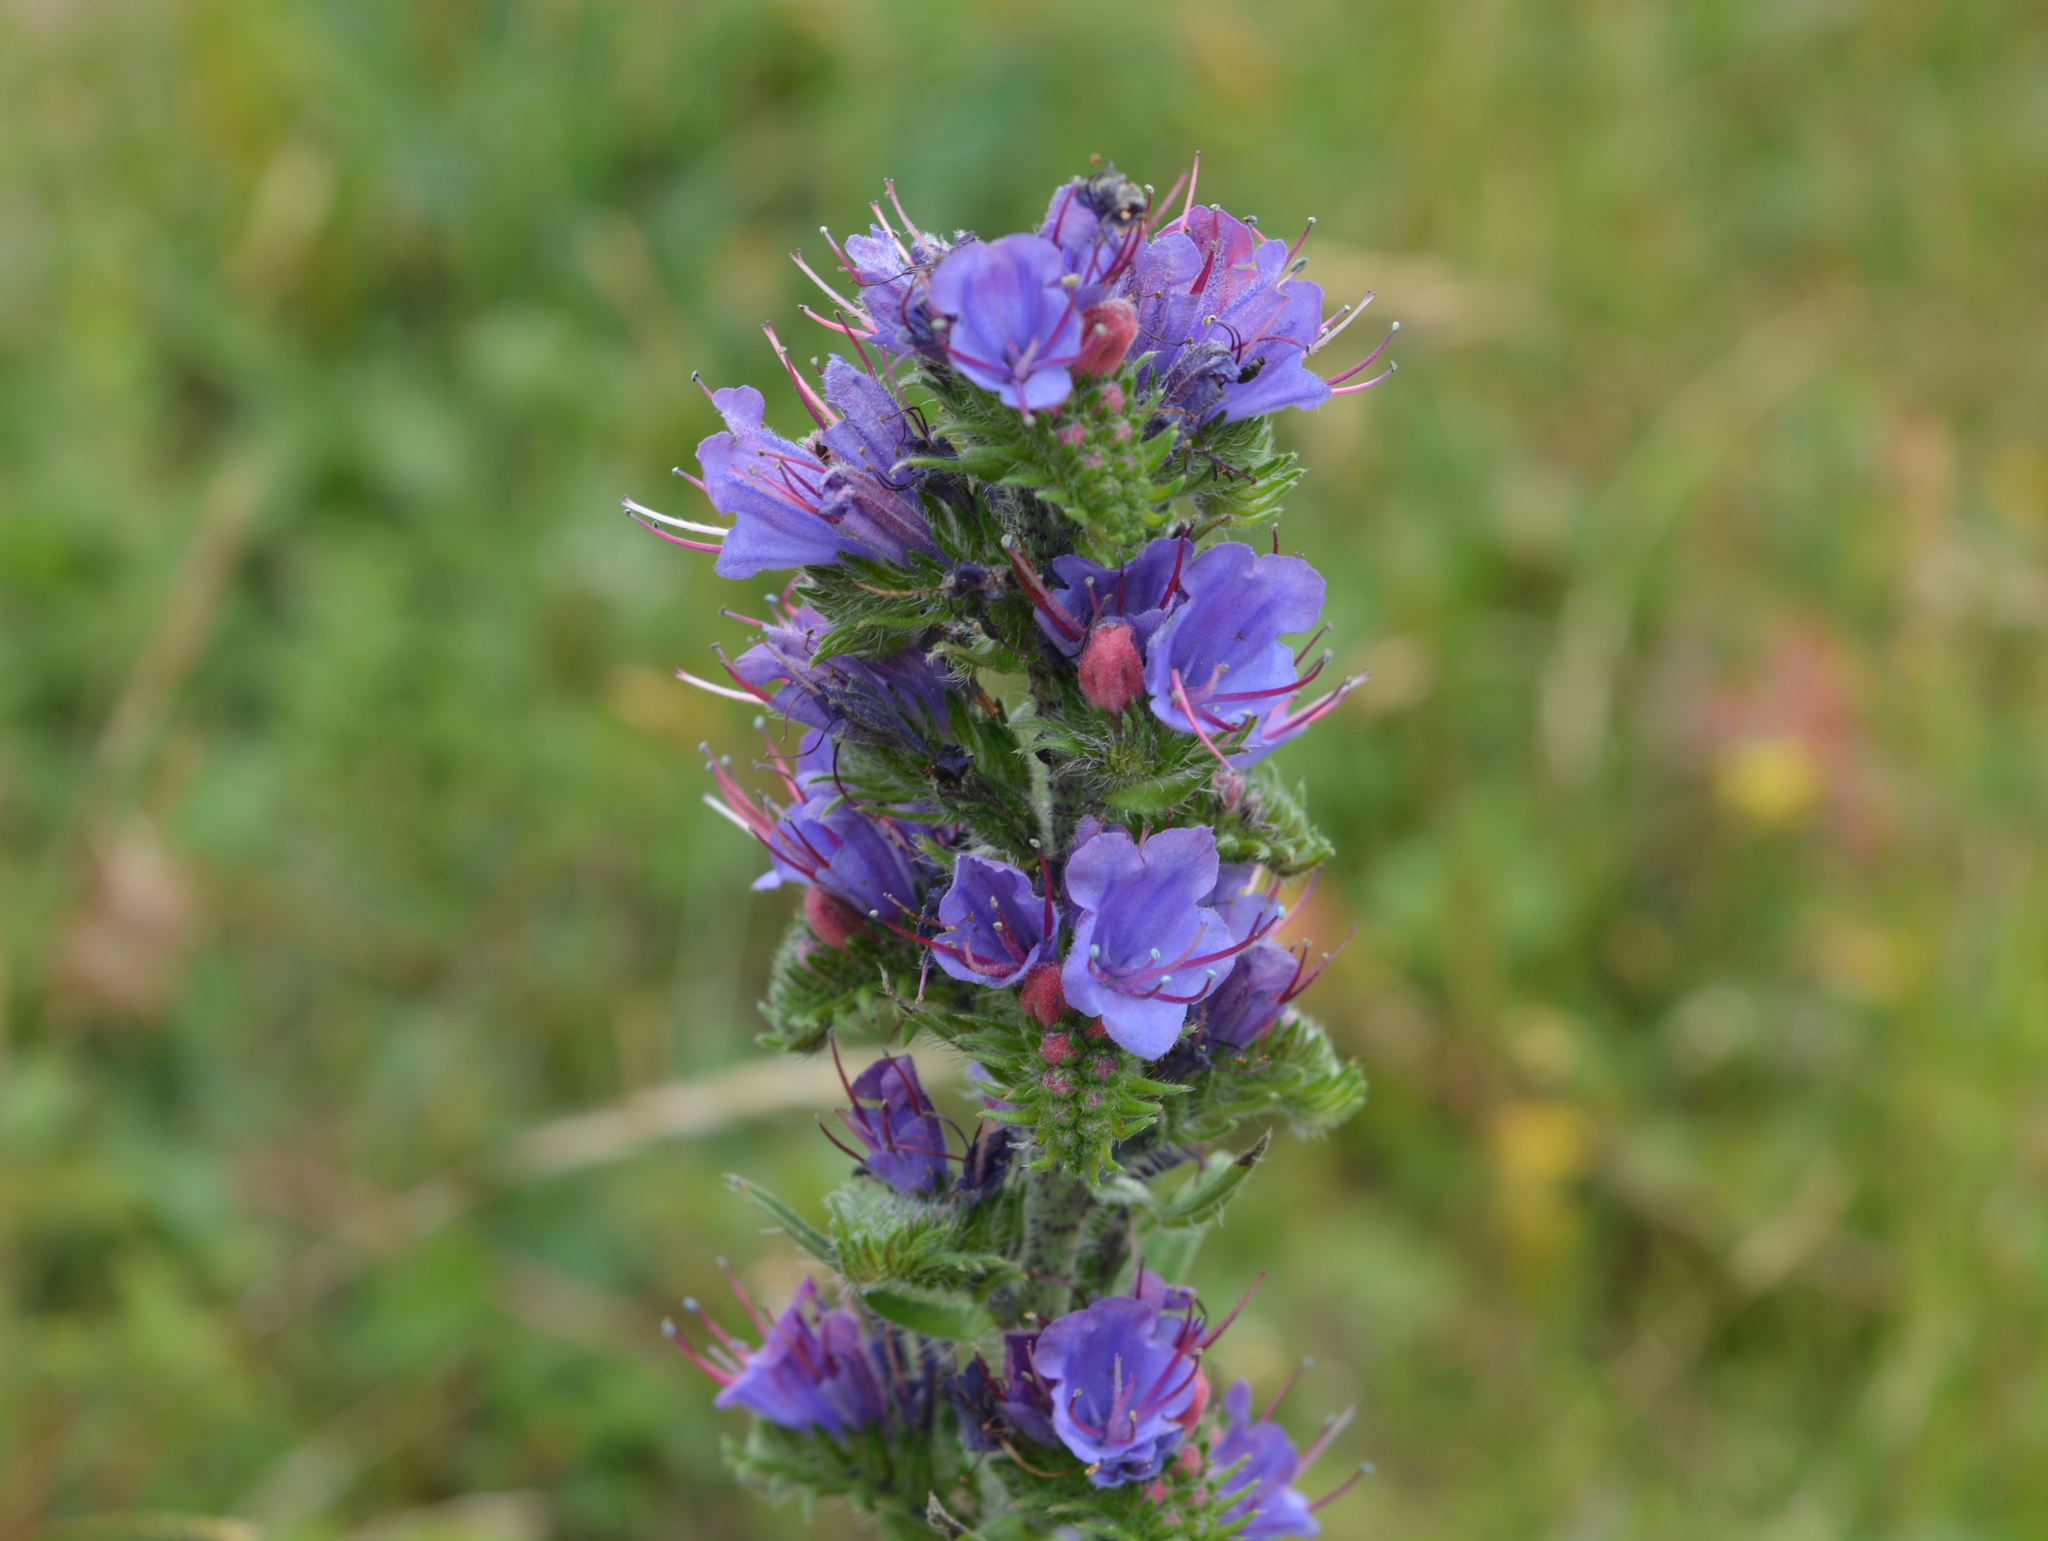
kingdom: Plantae
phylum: Tracheophyta
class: Magnoliopsida
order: Boraginales
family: Boraginaceae
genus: Echium
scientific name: Echium vulgare
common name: Common viper's bugloss
